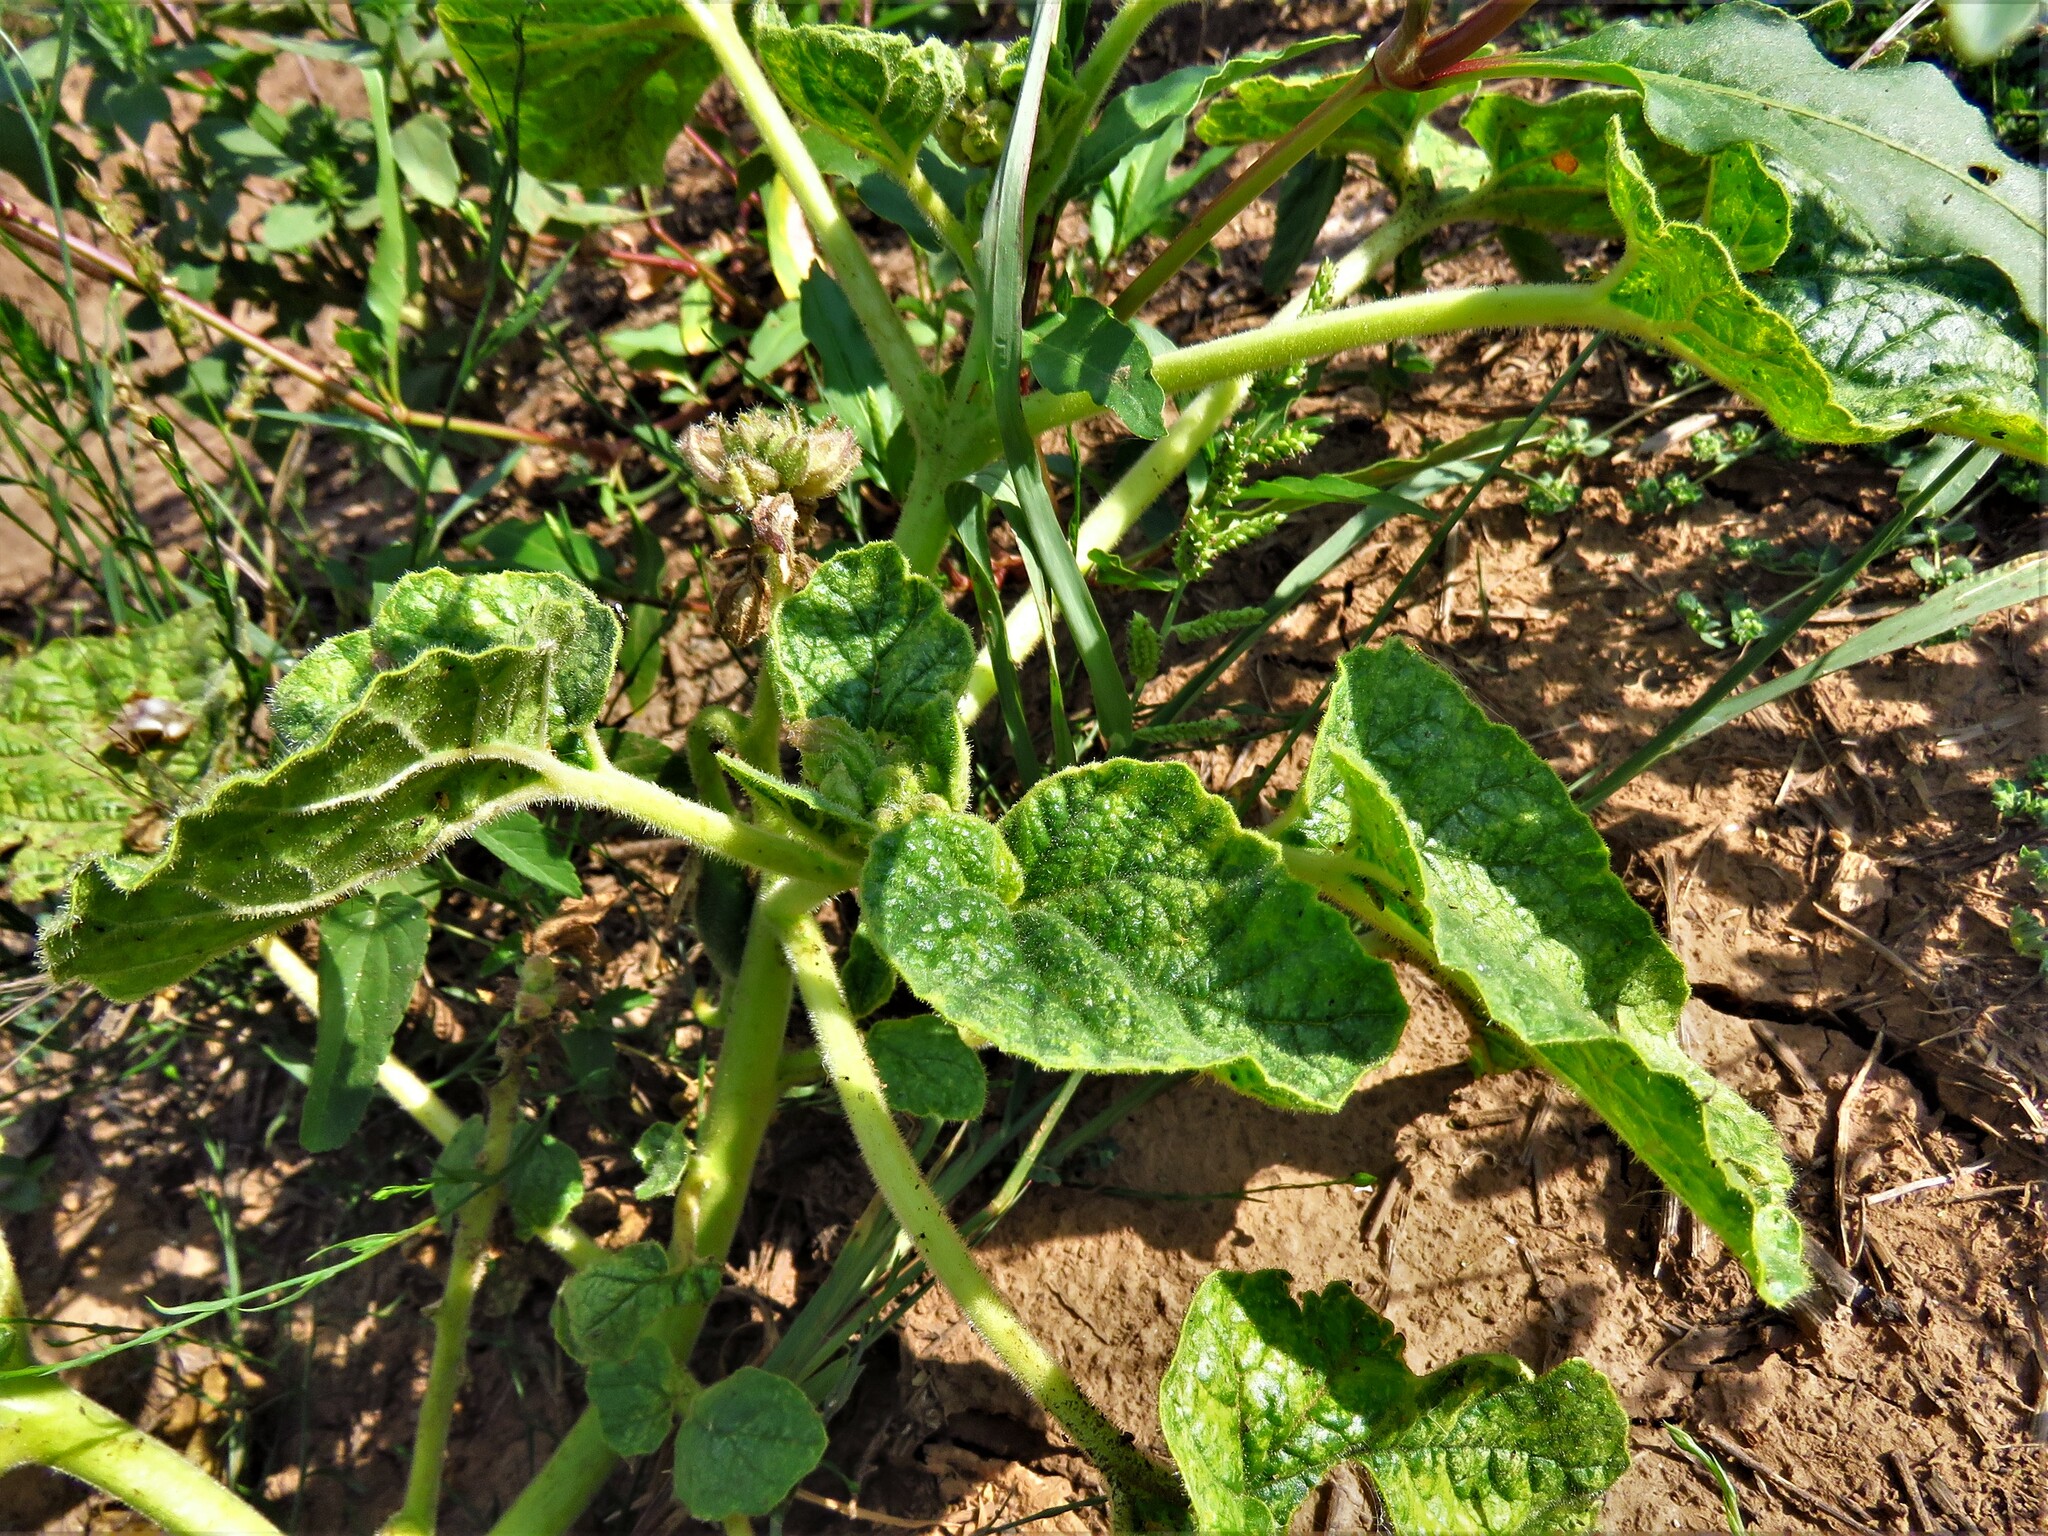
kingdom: Plantae
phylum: Tracheophyta
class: Magnoliopsida
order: Lamiales
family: Martyniaceae
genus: Proboscidea
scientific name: Proboscidea louisianica
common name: Elephant tusks
